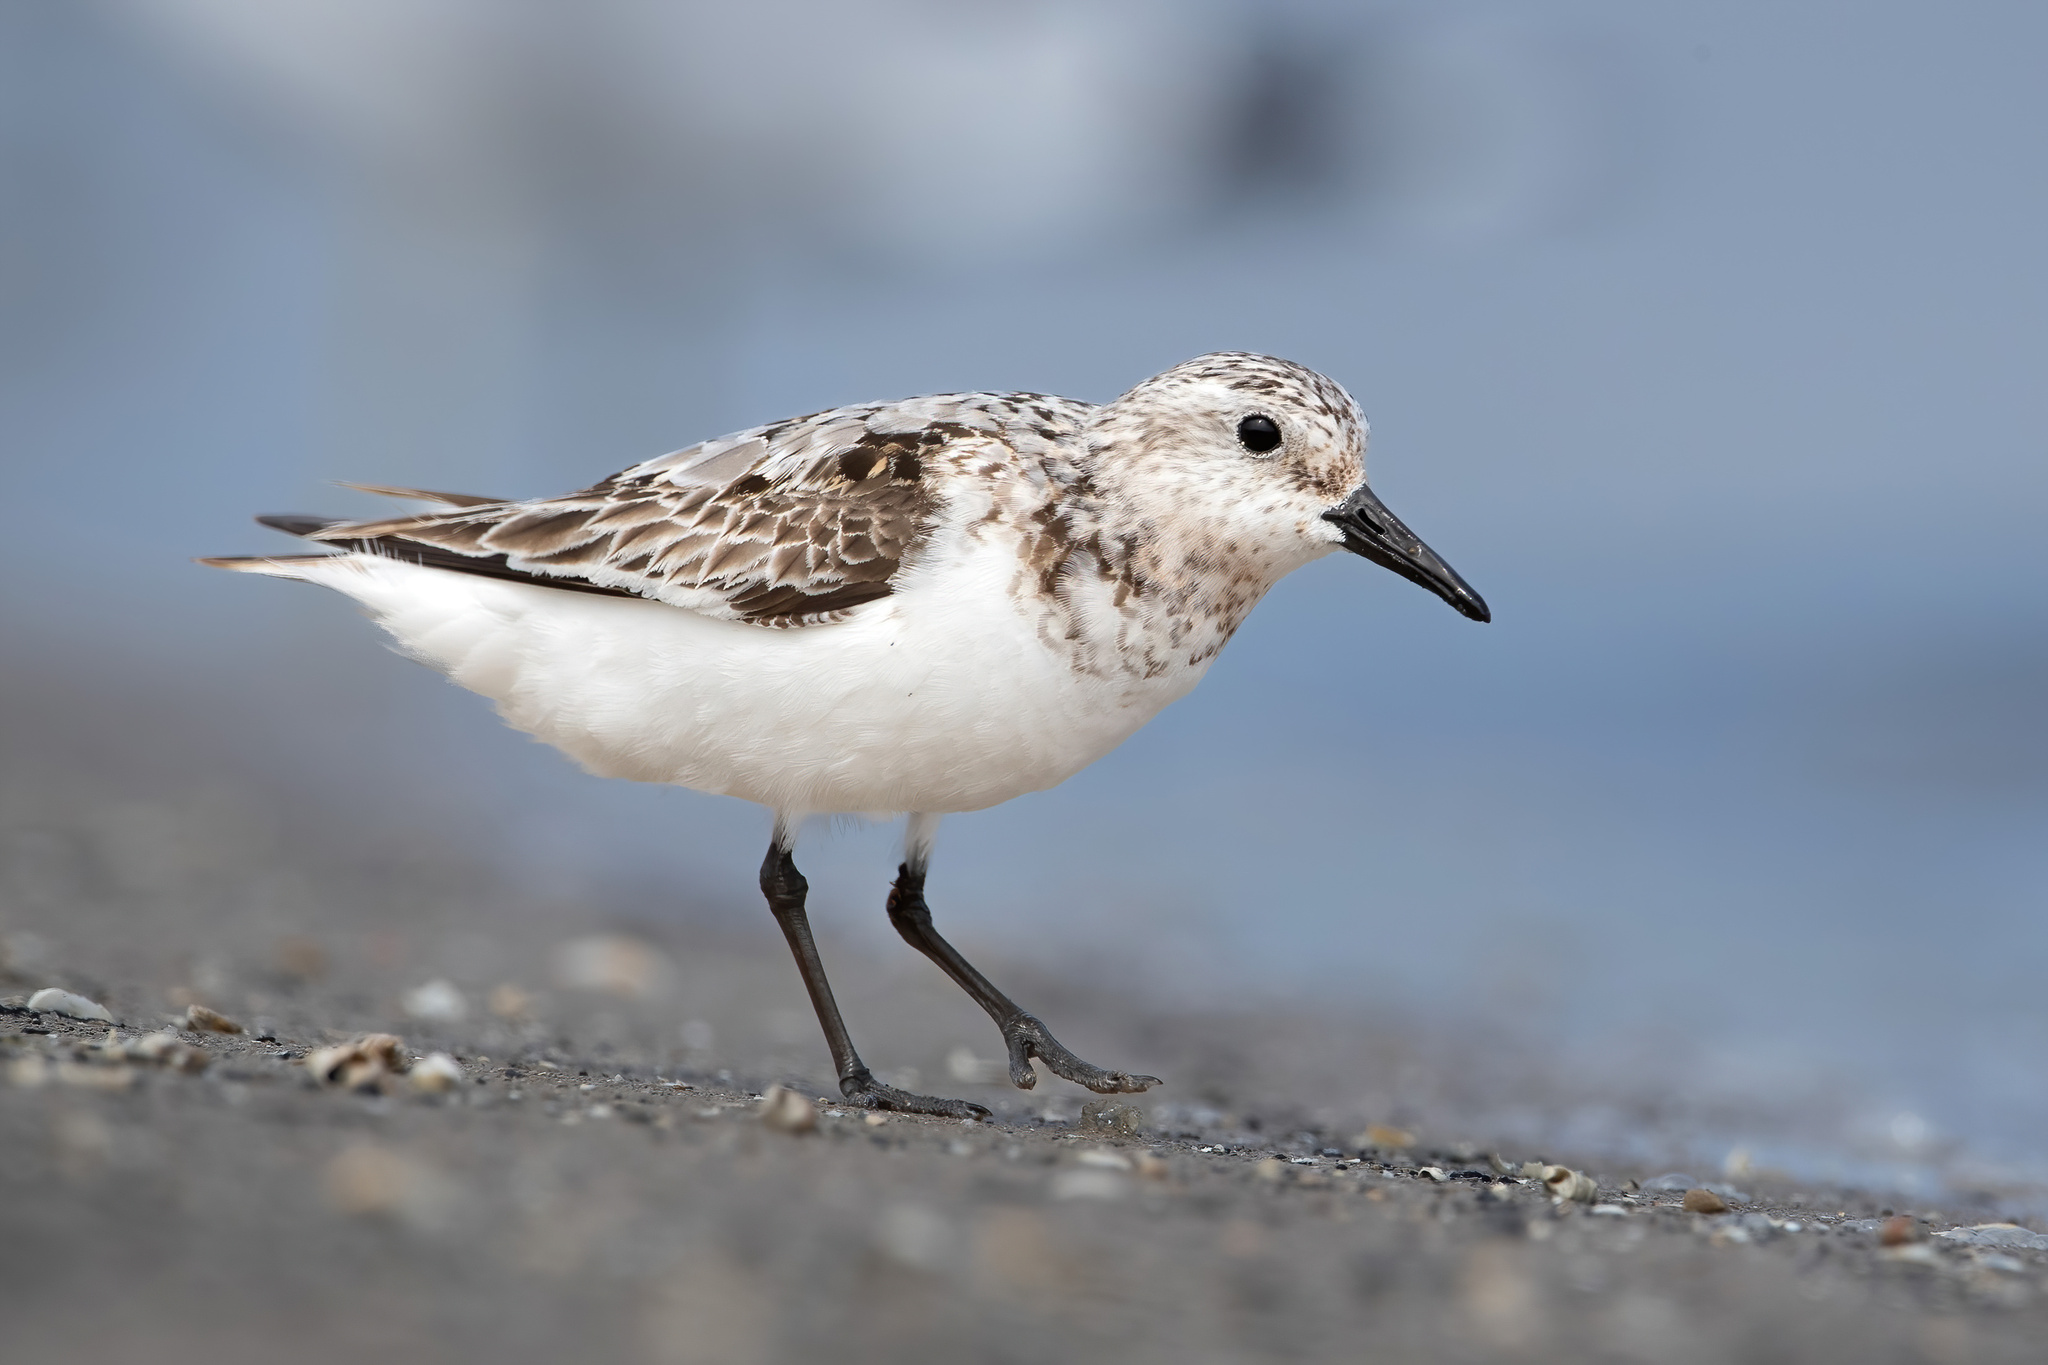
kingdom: Animalia
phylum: Chordata
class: Aves
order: Charadriiformes
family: Scolopacidae
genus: Calidris
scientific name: Calidris alba
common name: Sanderling
